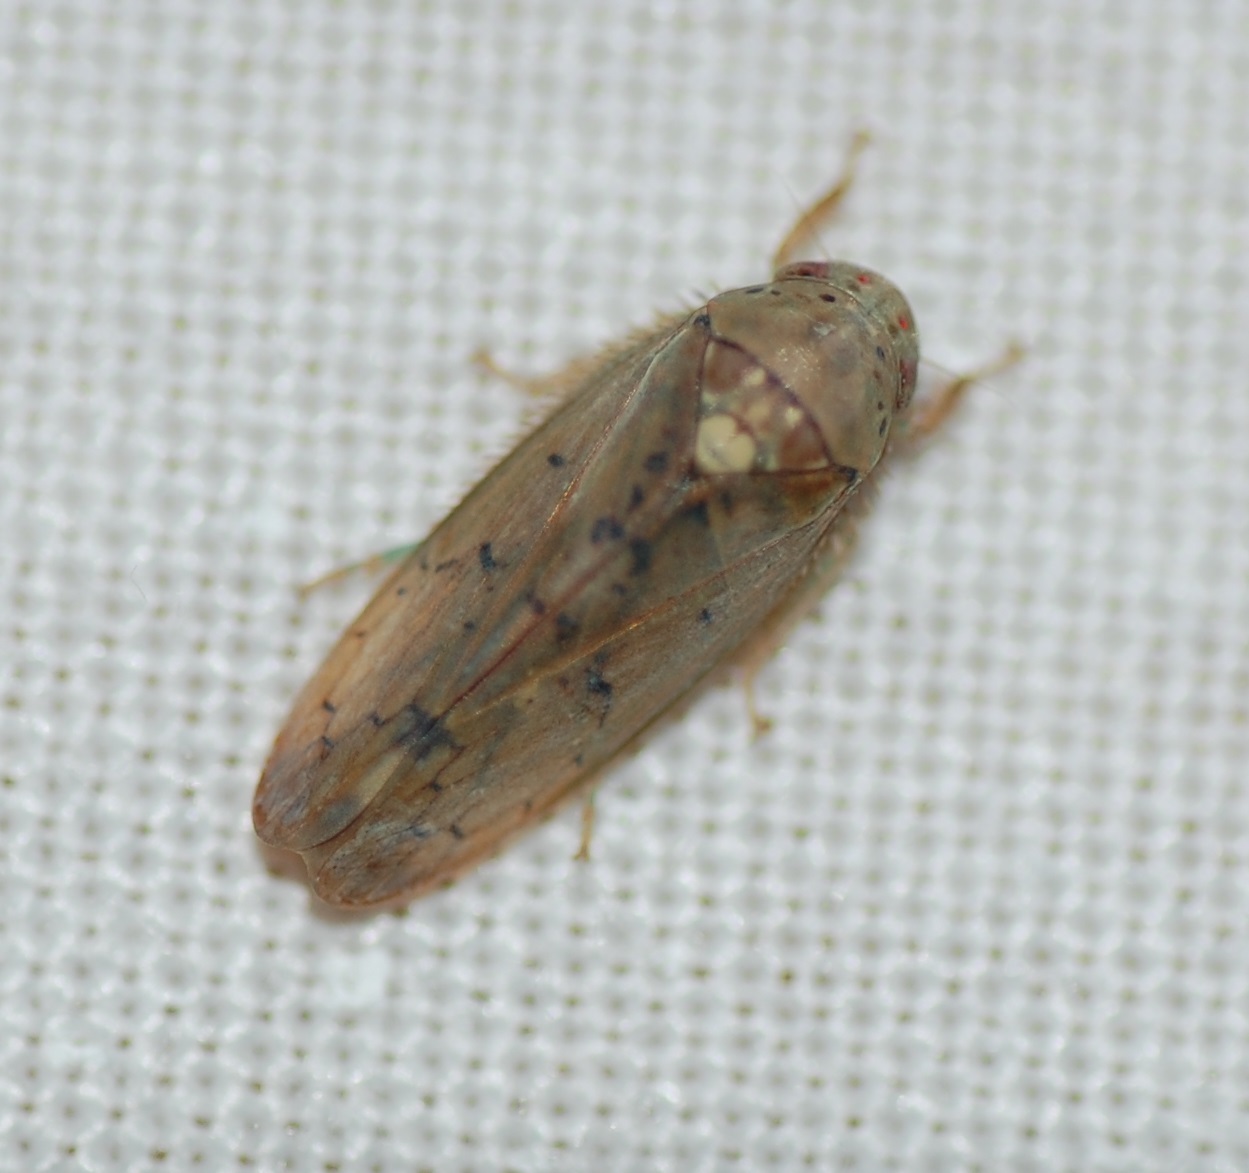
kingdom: Animalia
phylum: Arthropoda
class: Insecta
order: Hemiptera
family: Cicadellidae
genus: Ponana
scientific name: Ponana quadralaba
